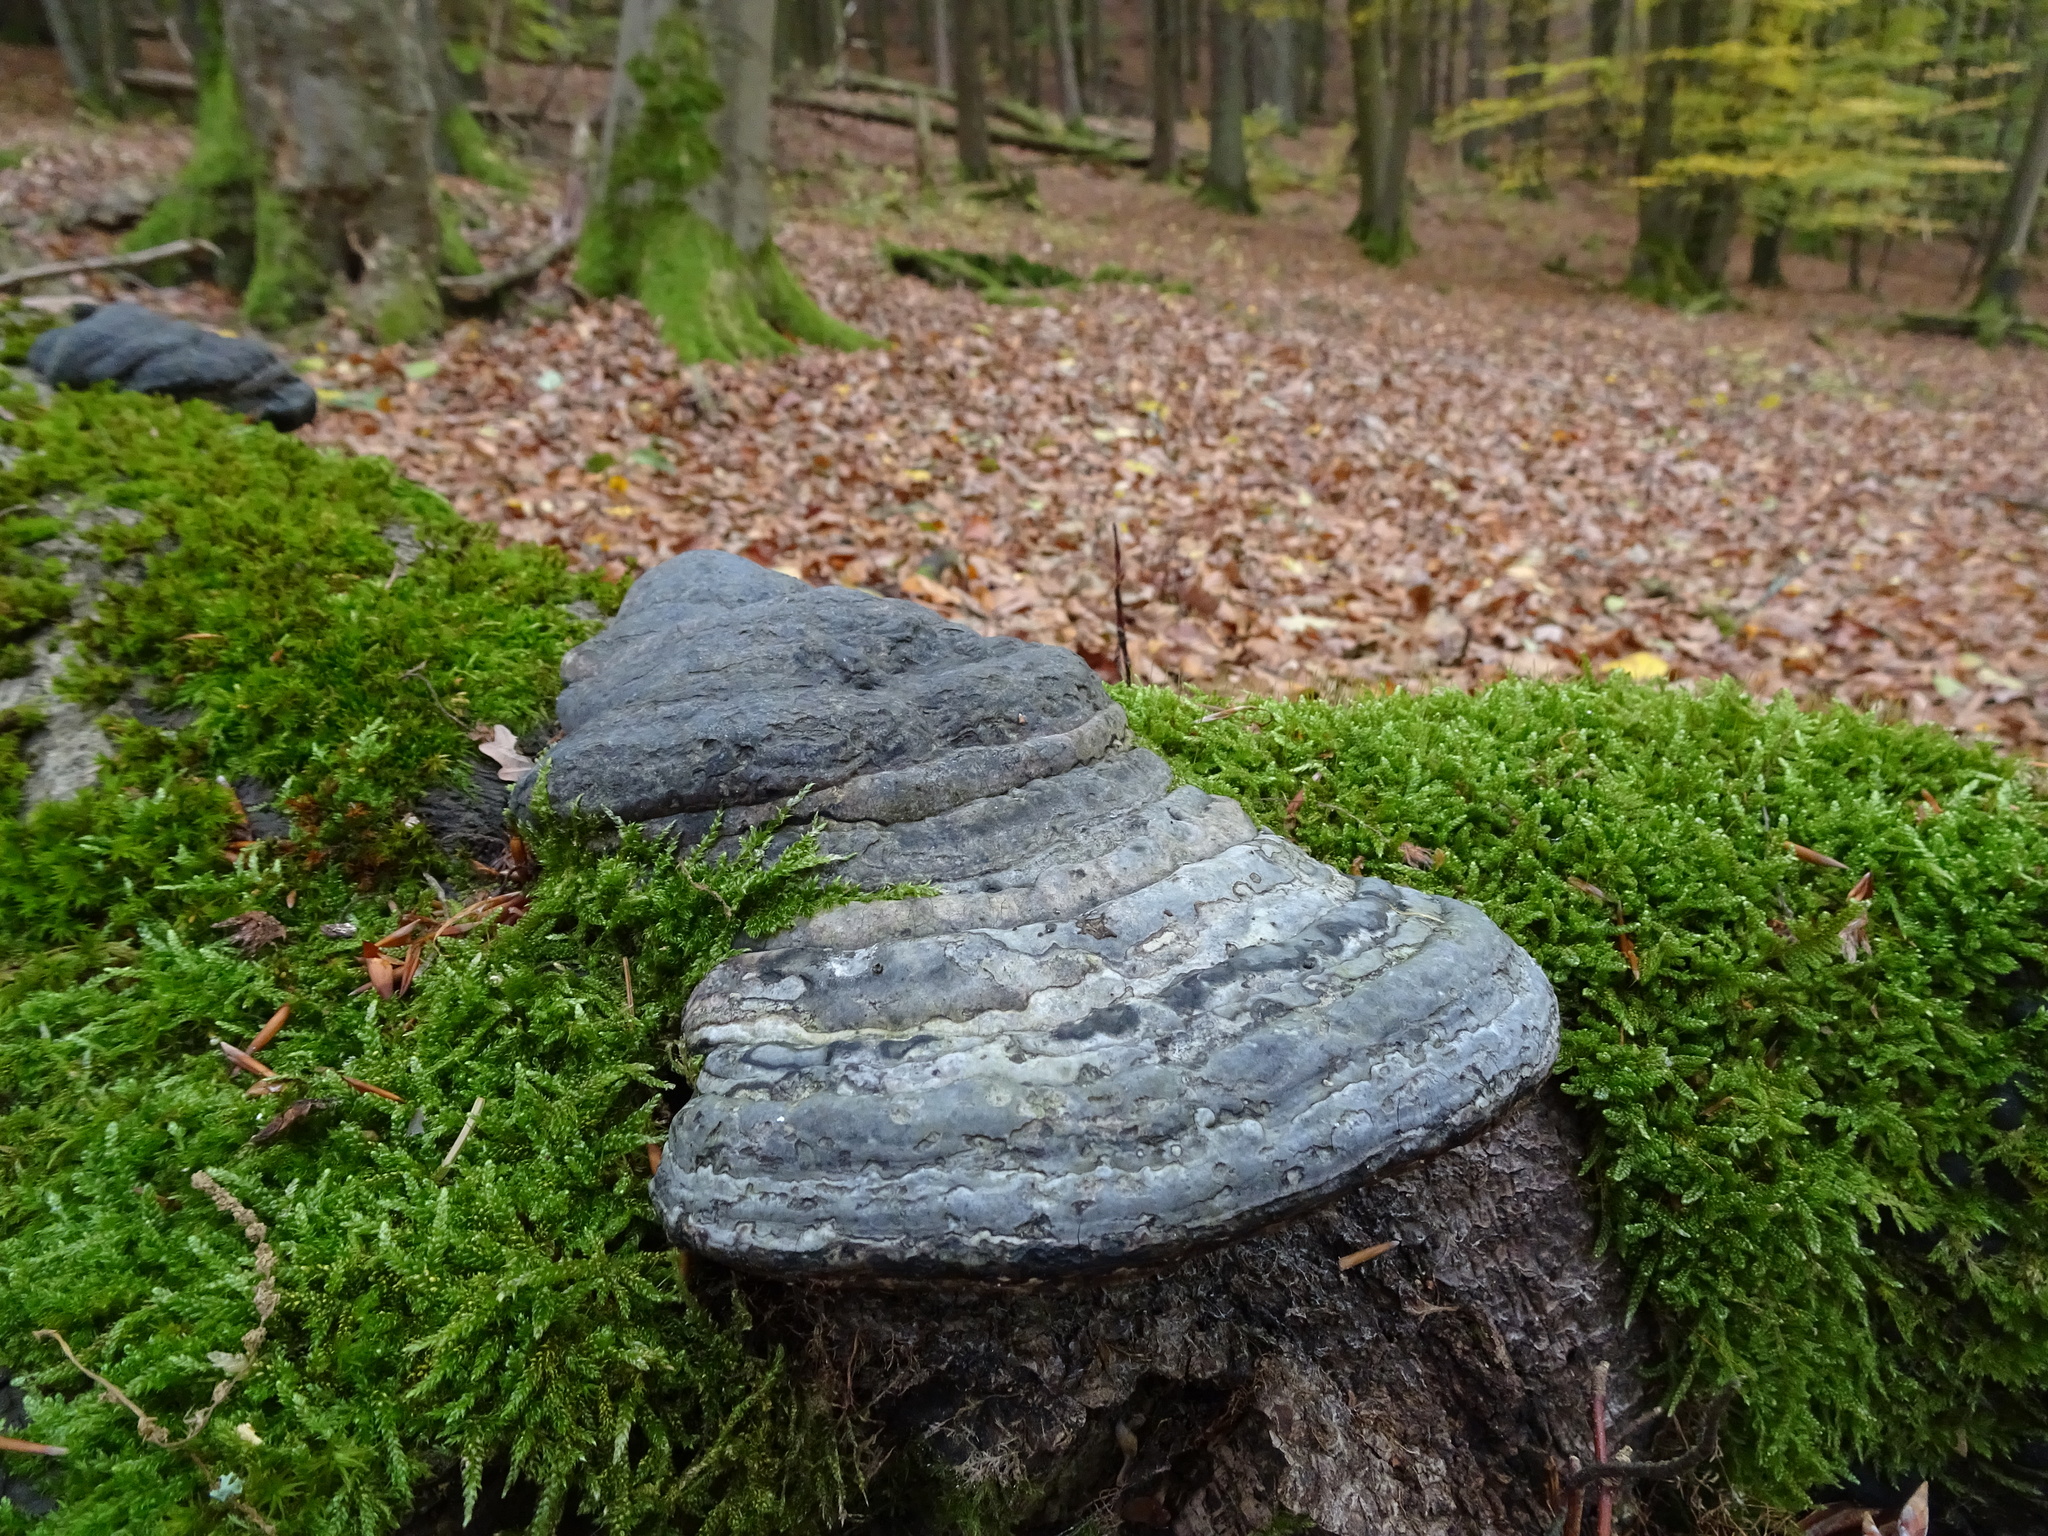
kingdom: Fungi
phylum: Basidiomycota
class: Agaricomycetes
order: Polyporales
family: Polyporaceae
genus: Fomes
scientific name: Fomes fomentarius
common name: Hoof fungus
